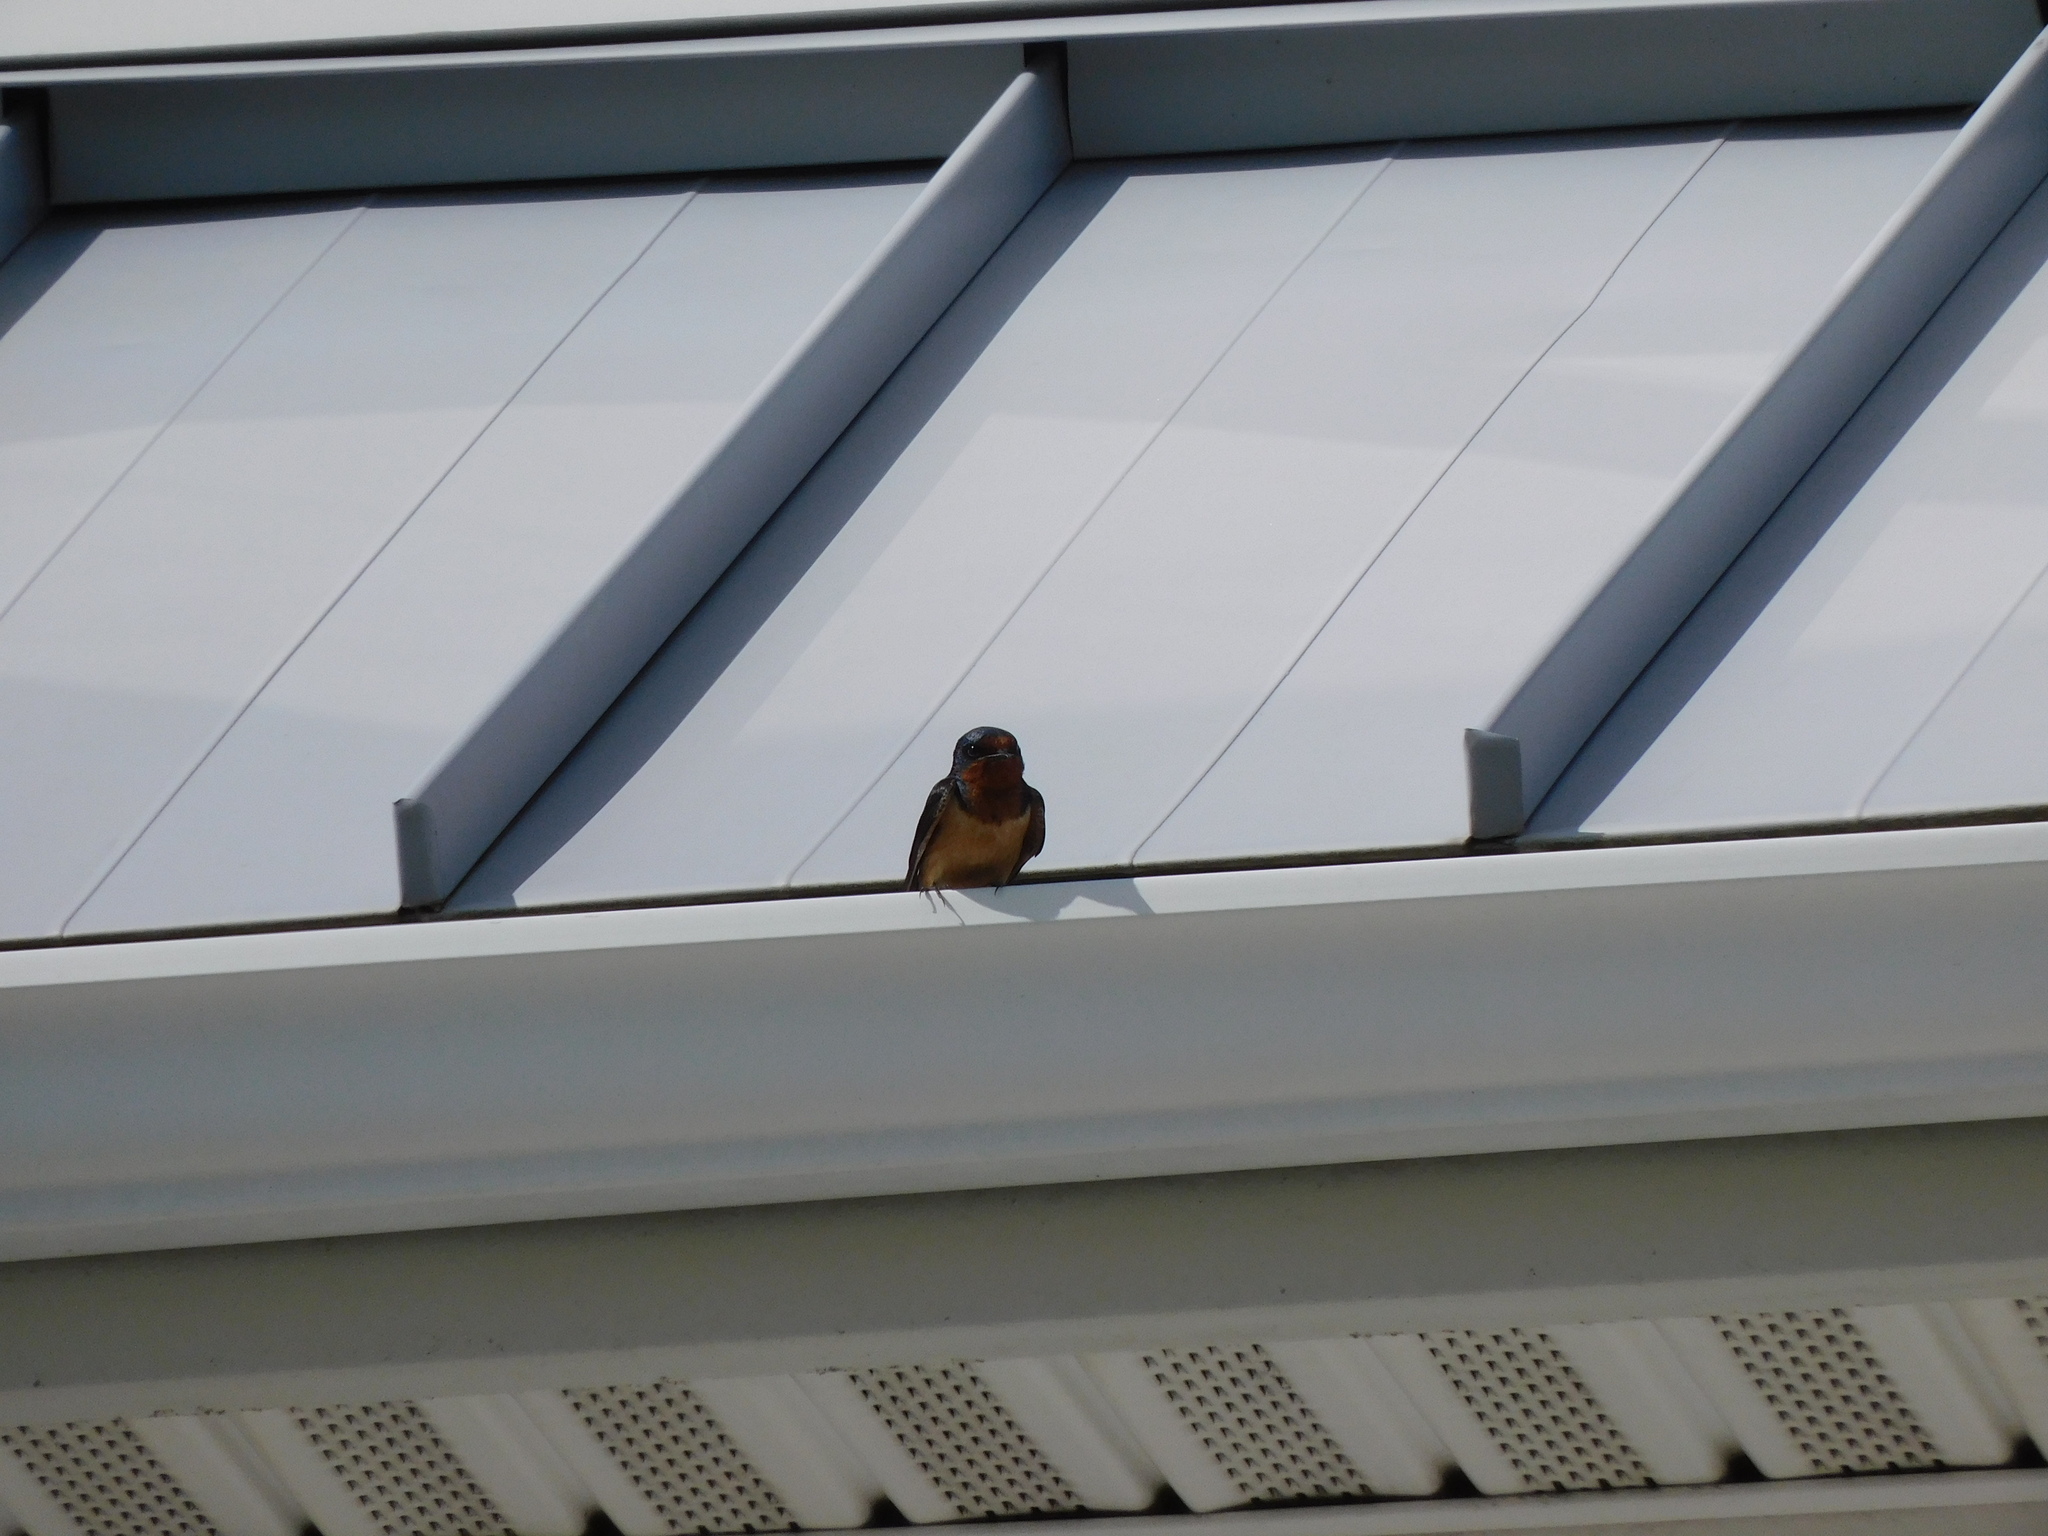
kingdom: Animalia
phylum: Chordata
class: Aves
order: Passeriformes
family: Hirundinidae
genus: Hirundo
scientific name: Hirundo rustica
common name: Barn swallow
